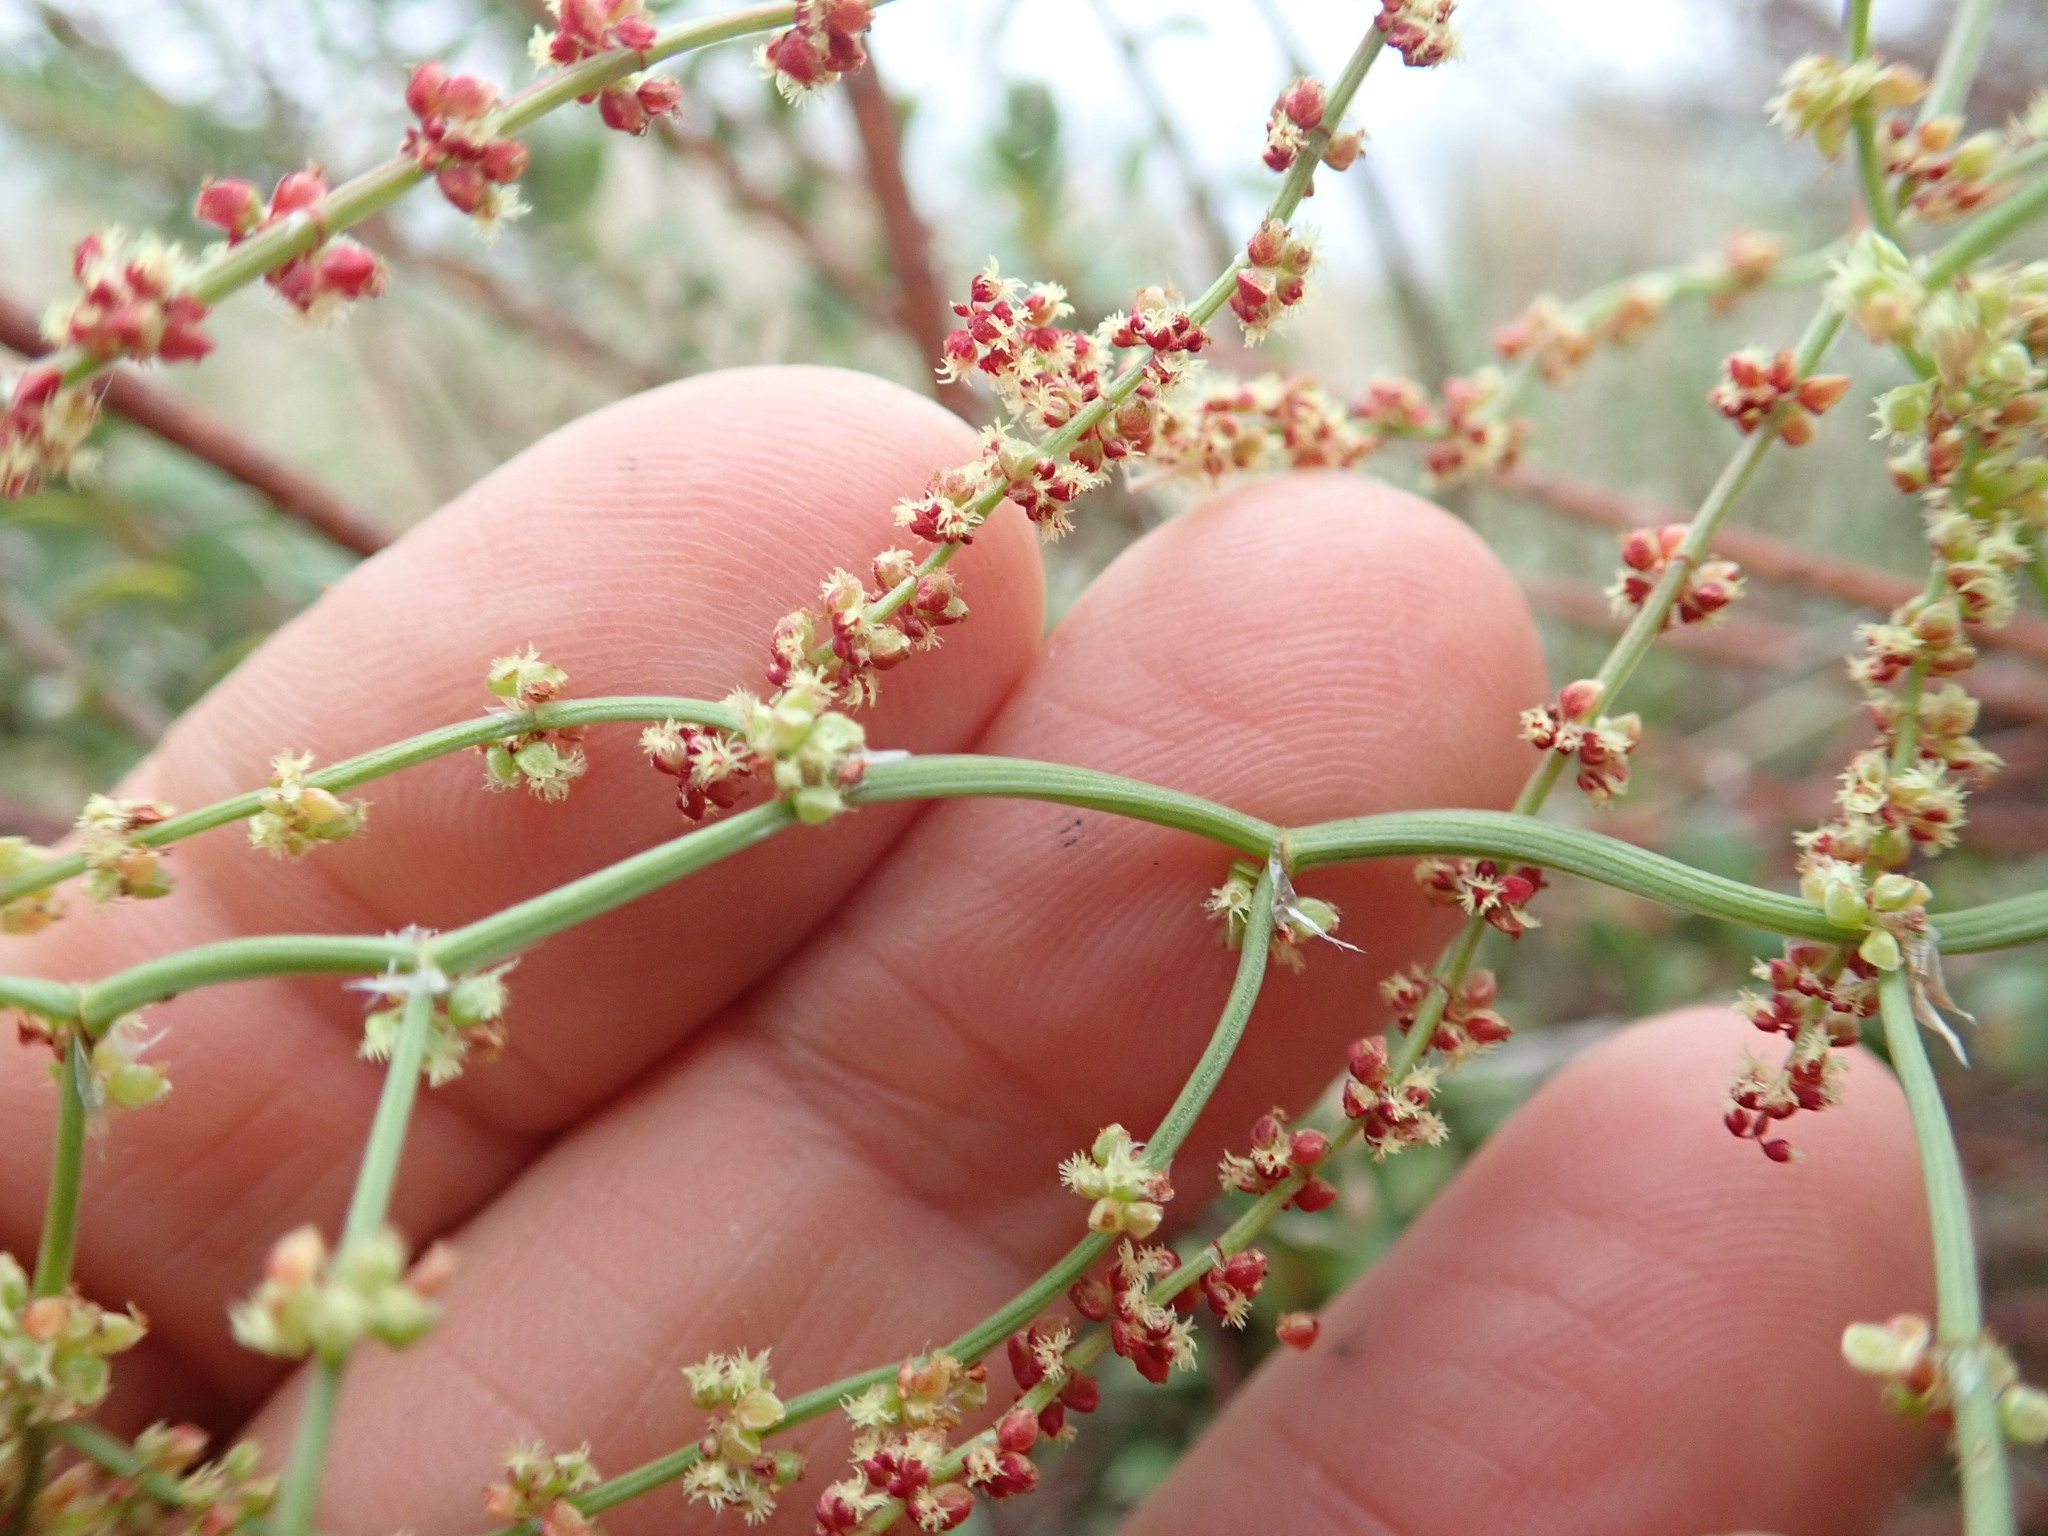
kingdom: Plantae
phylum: Tracheophyta
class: Magnoliopsida
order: Caryophyllales
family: Polygonaceae
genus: Rumex
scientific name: Rumex acetosella
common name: Common sheep sorrel
